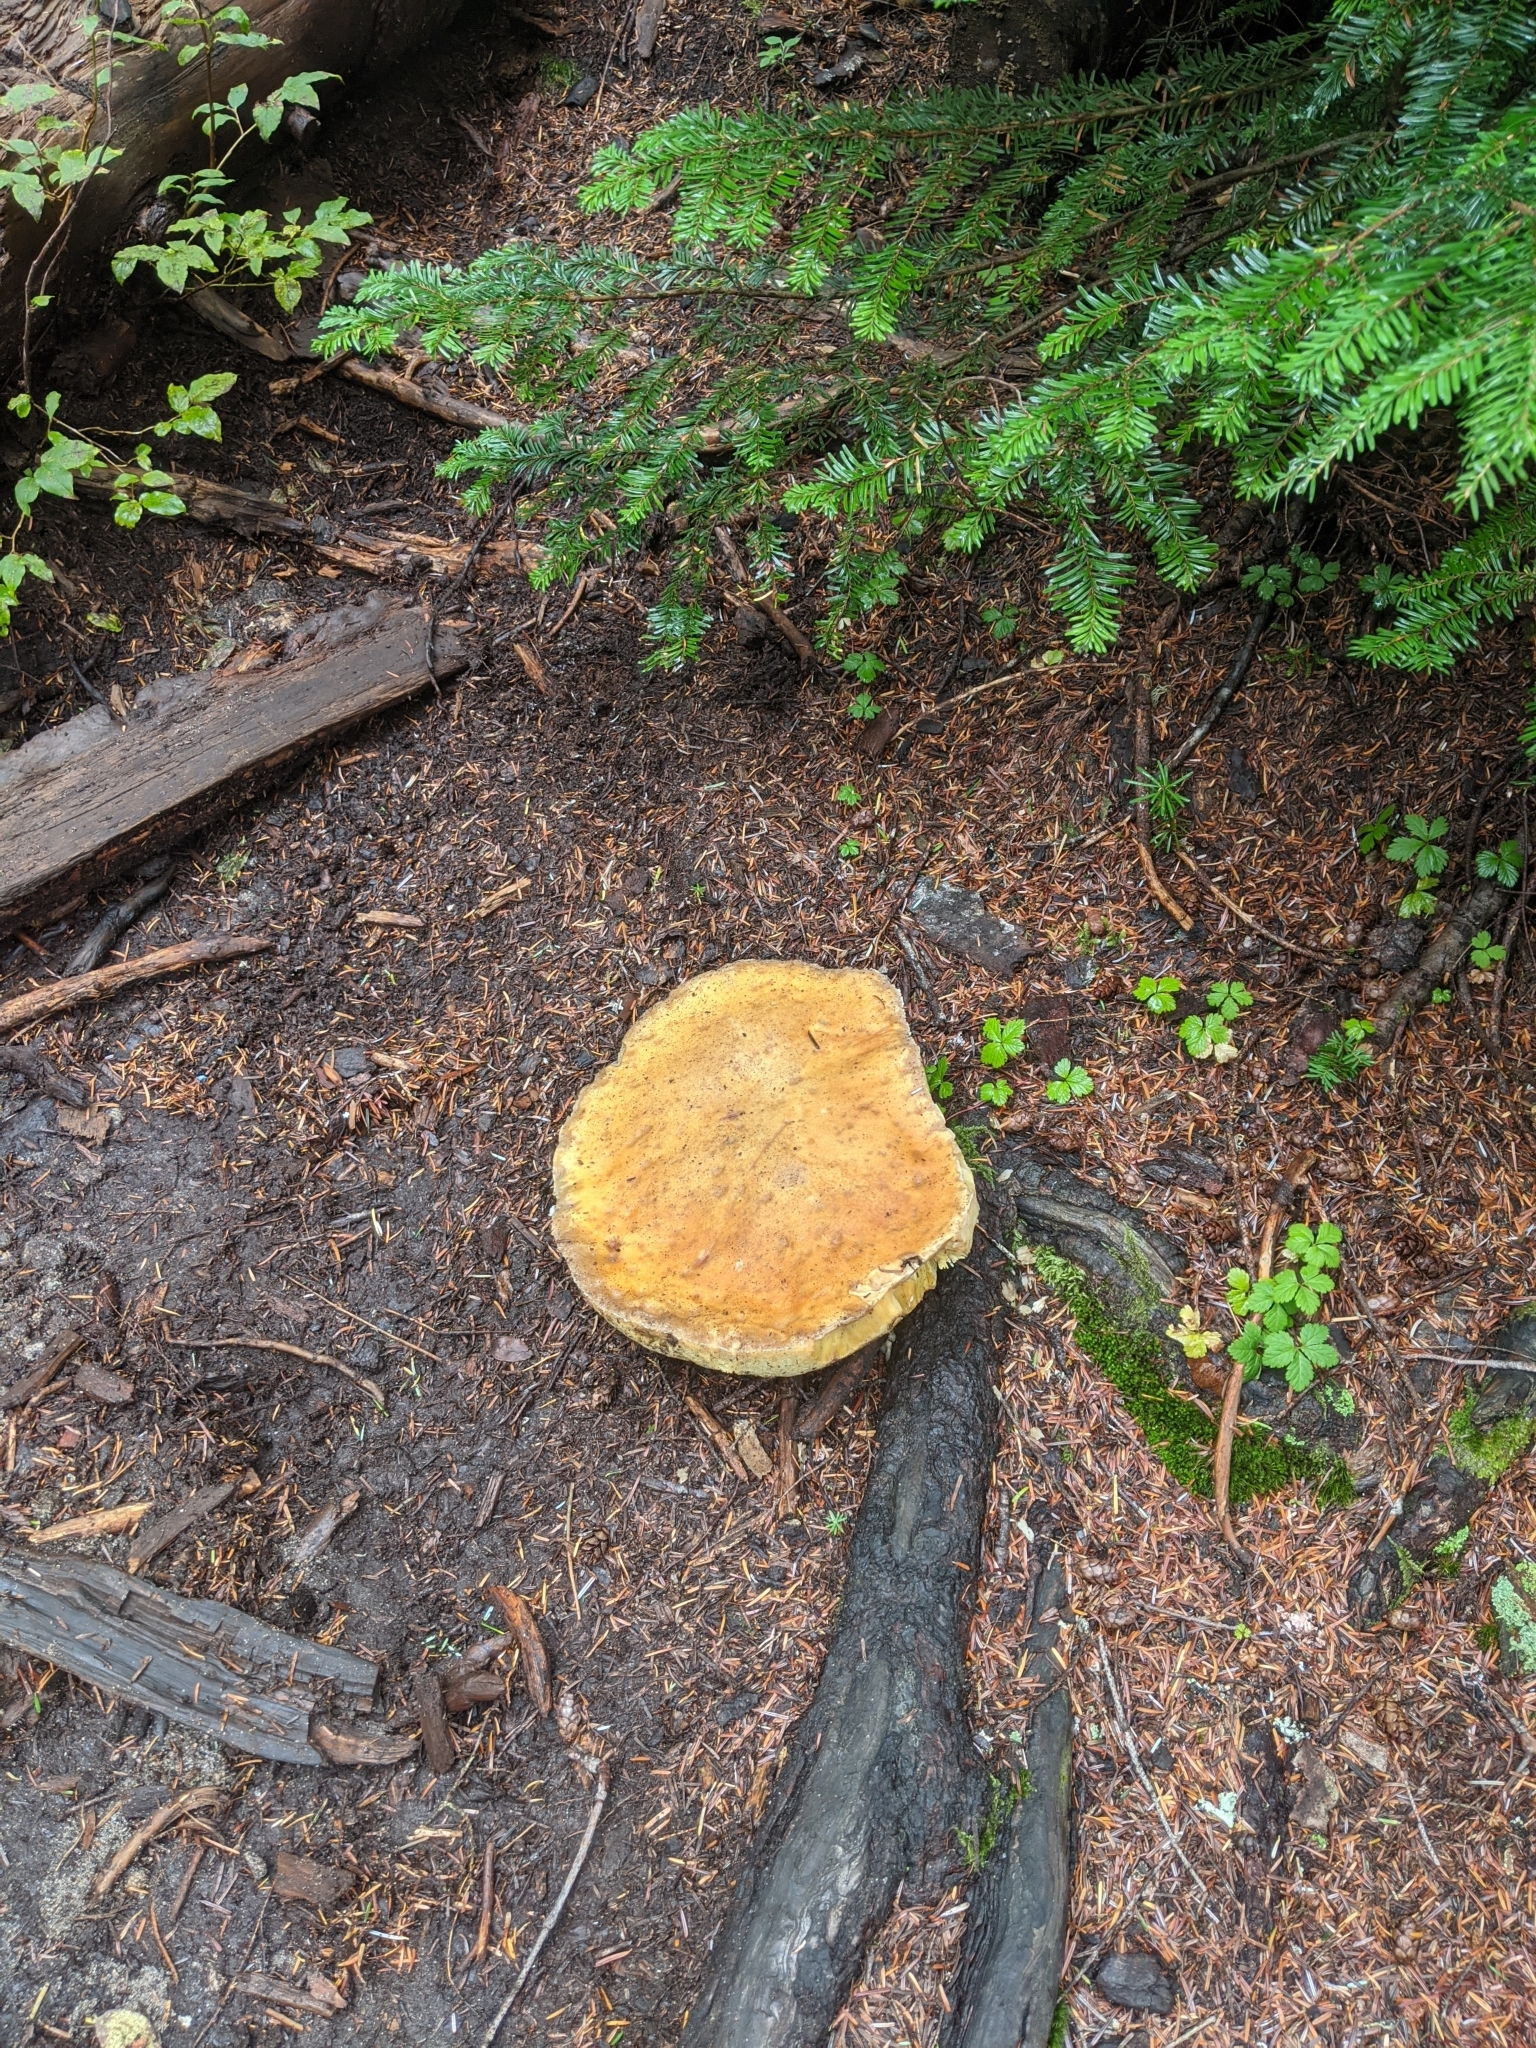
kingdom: Fungi
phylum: Basidiomycota
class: Agaricomycetes
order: Boletales
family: Boletaceae
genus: Boletus
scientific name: Boletus edulis
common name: Cep
